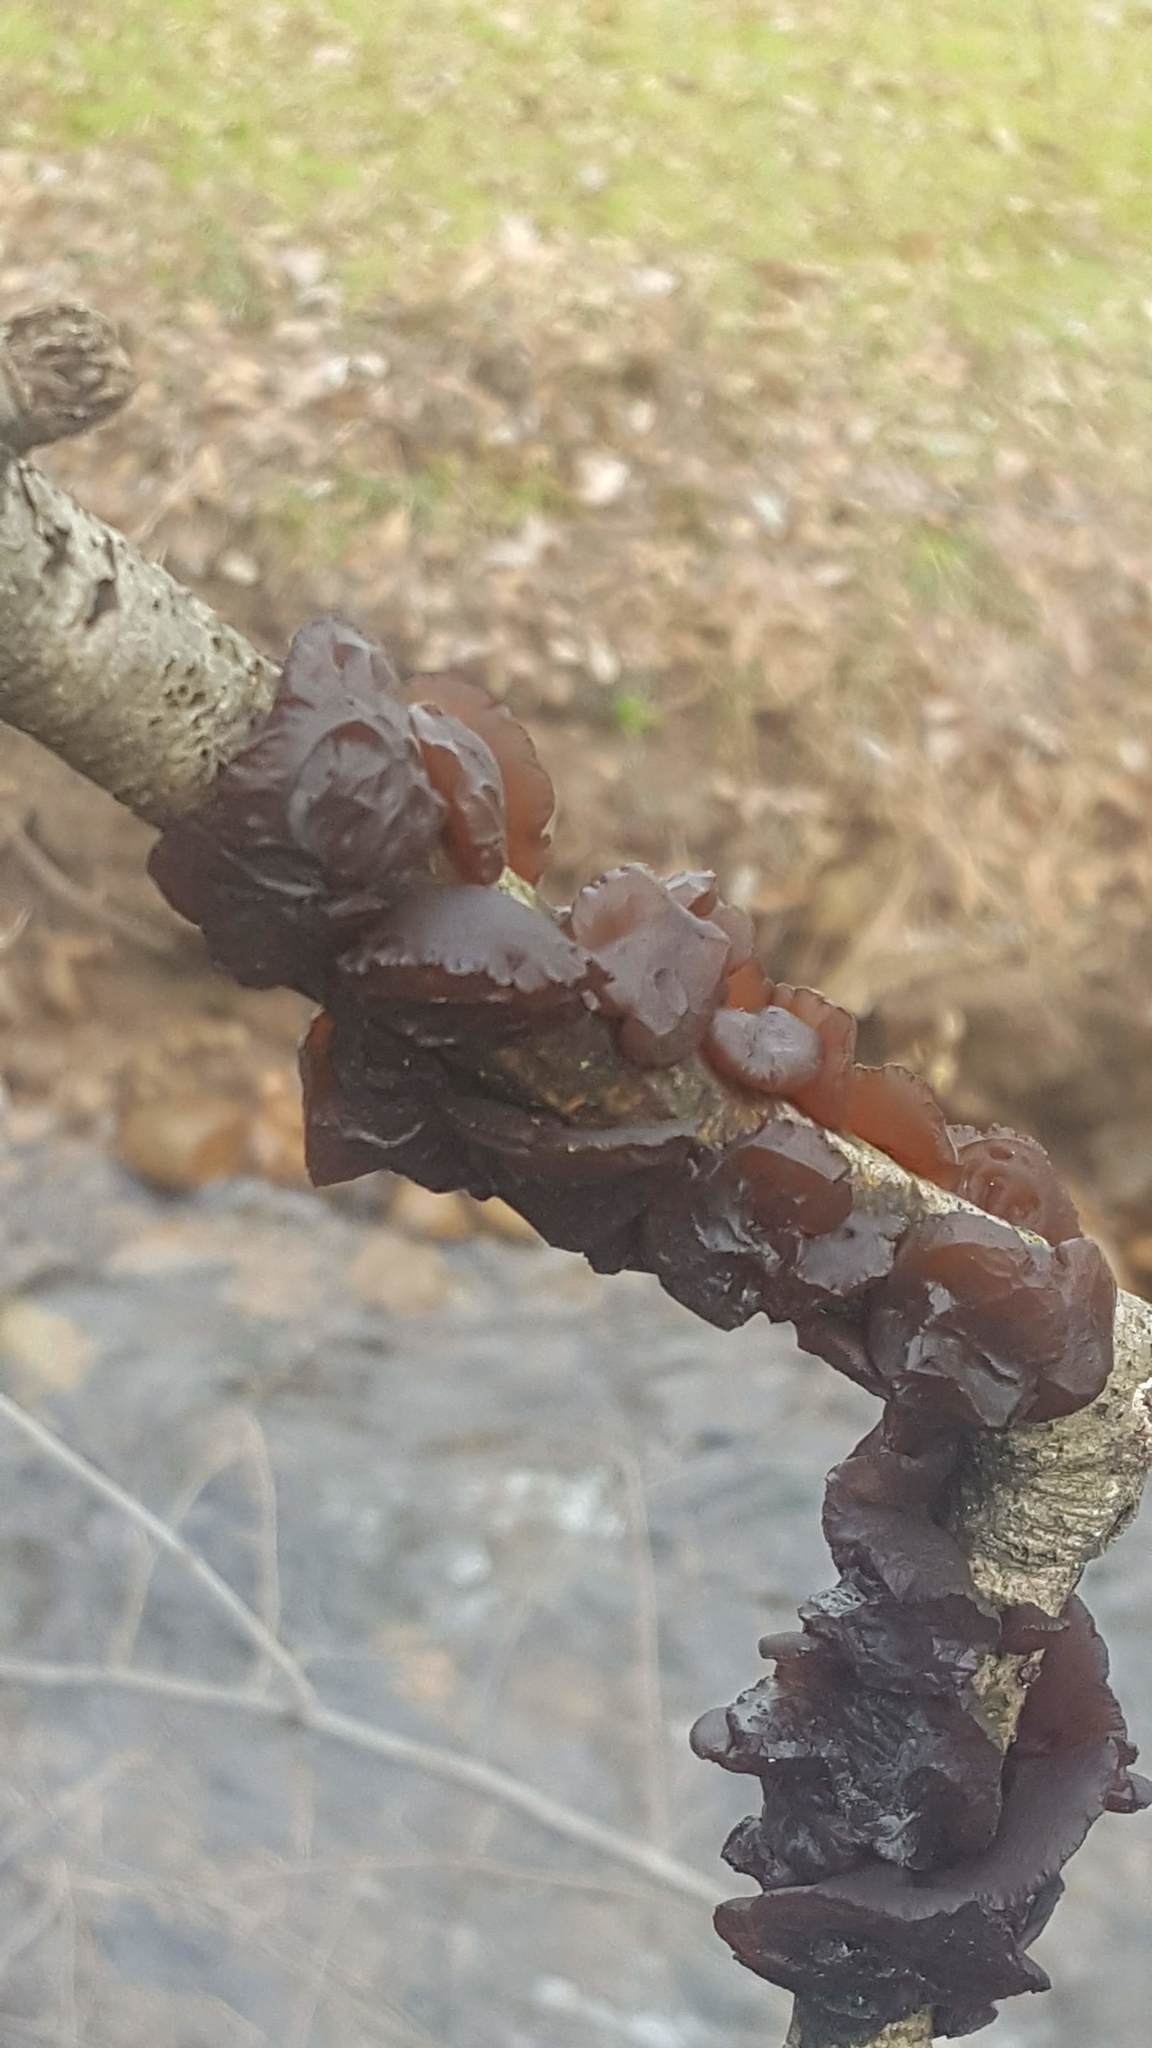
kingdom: Fungi
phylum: Basidiomycota
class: Agaricomycetes
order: Auriculariales
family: Auriculariaceae
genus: Exidia
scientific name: Exidia
